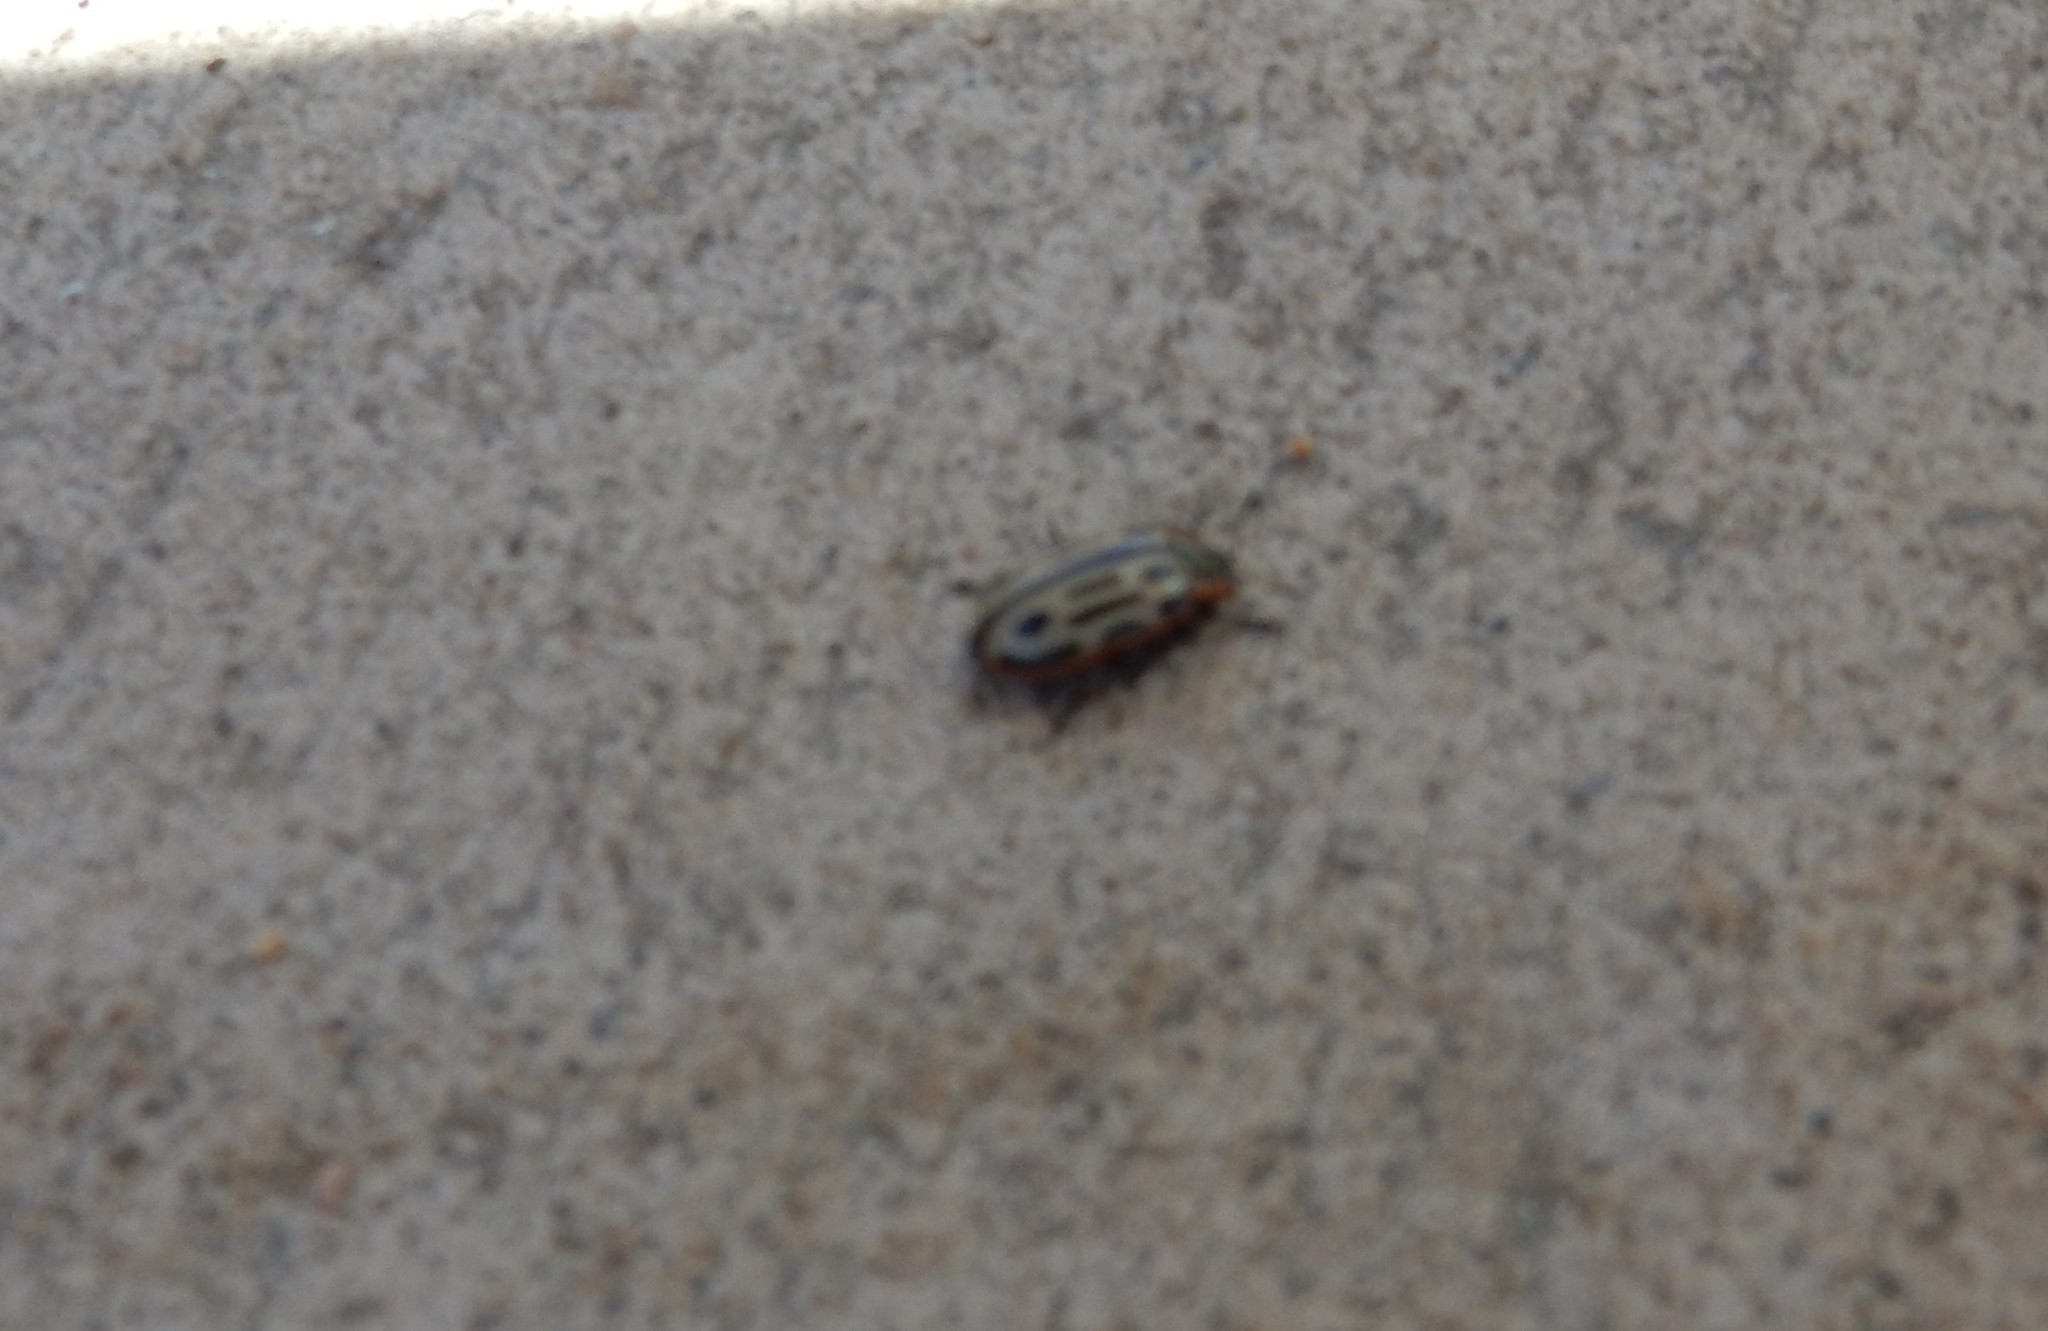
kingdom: Animalia
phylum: Arthropoda
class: Insecta
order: Coleoptera
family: Chrysomelidae
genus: Aethiopocassis
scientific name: Aethiopocassis scripta
